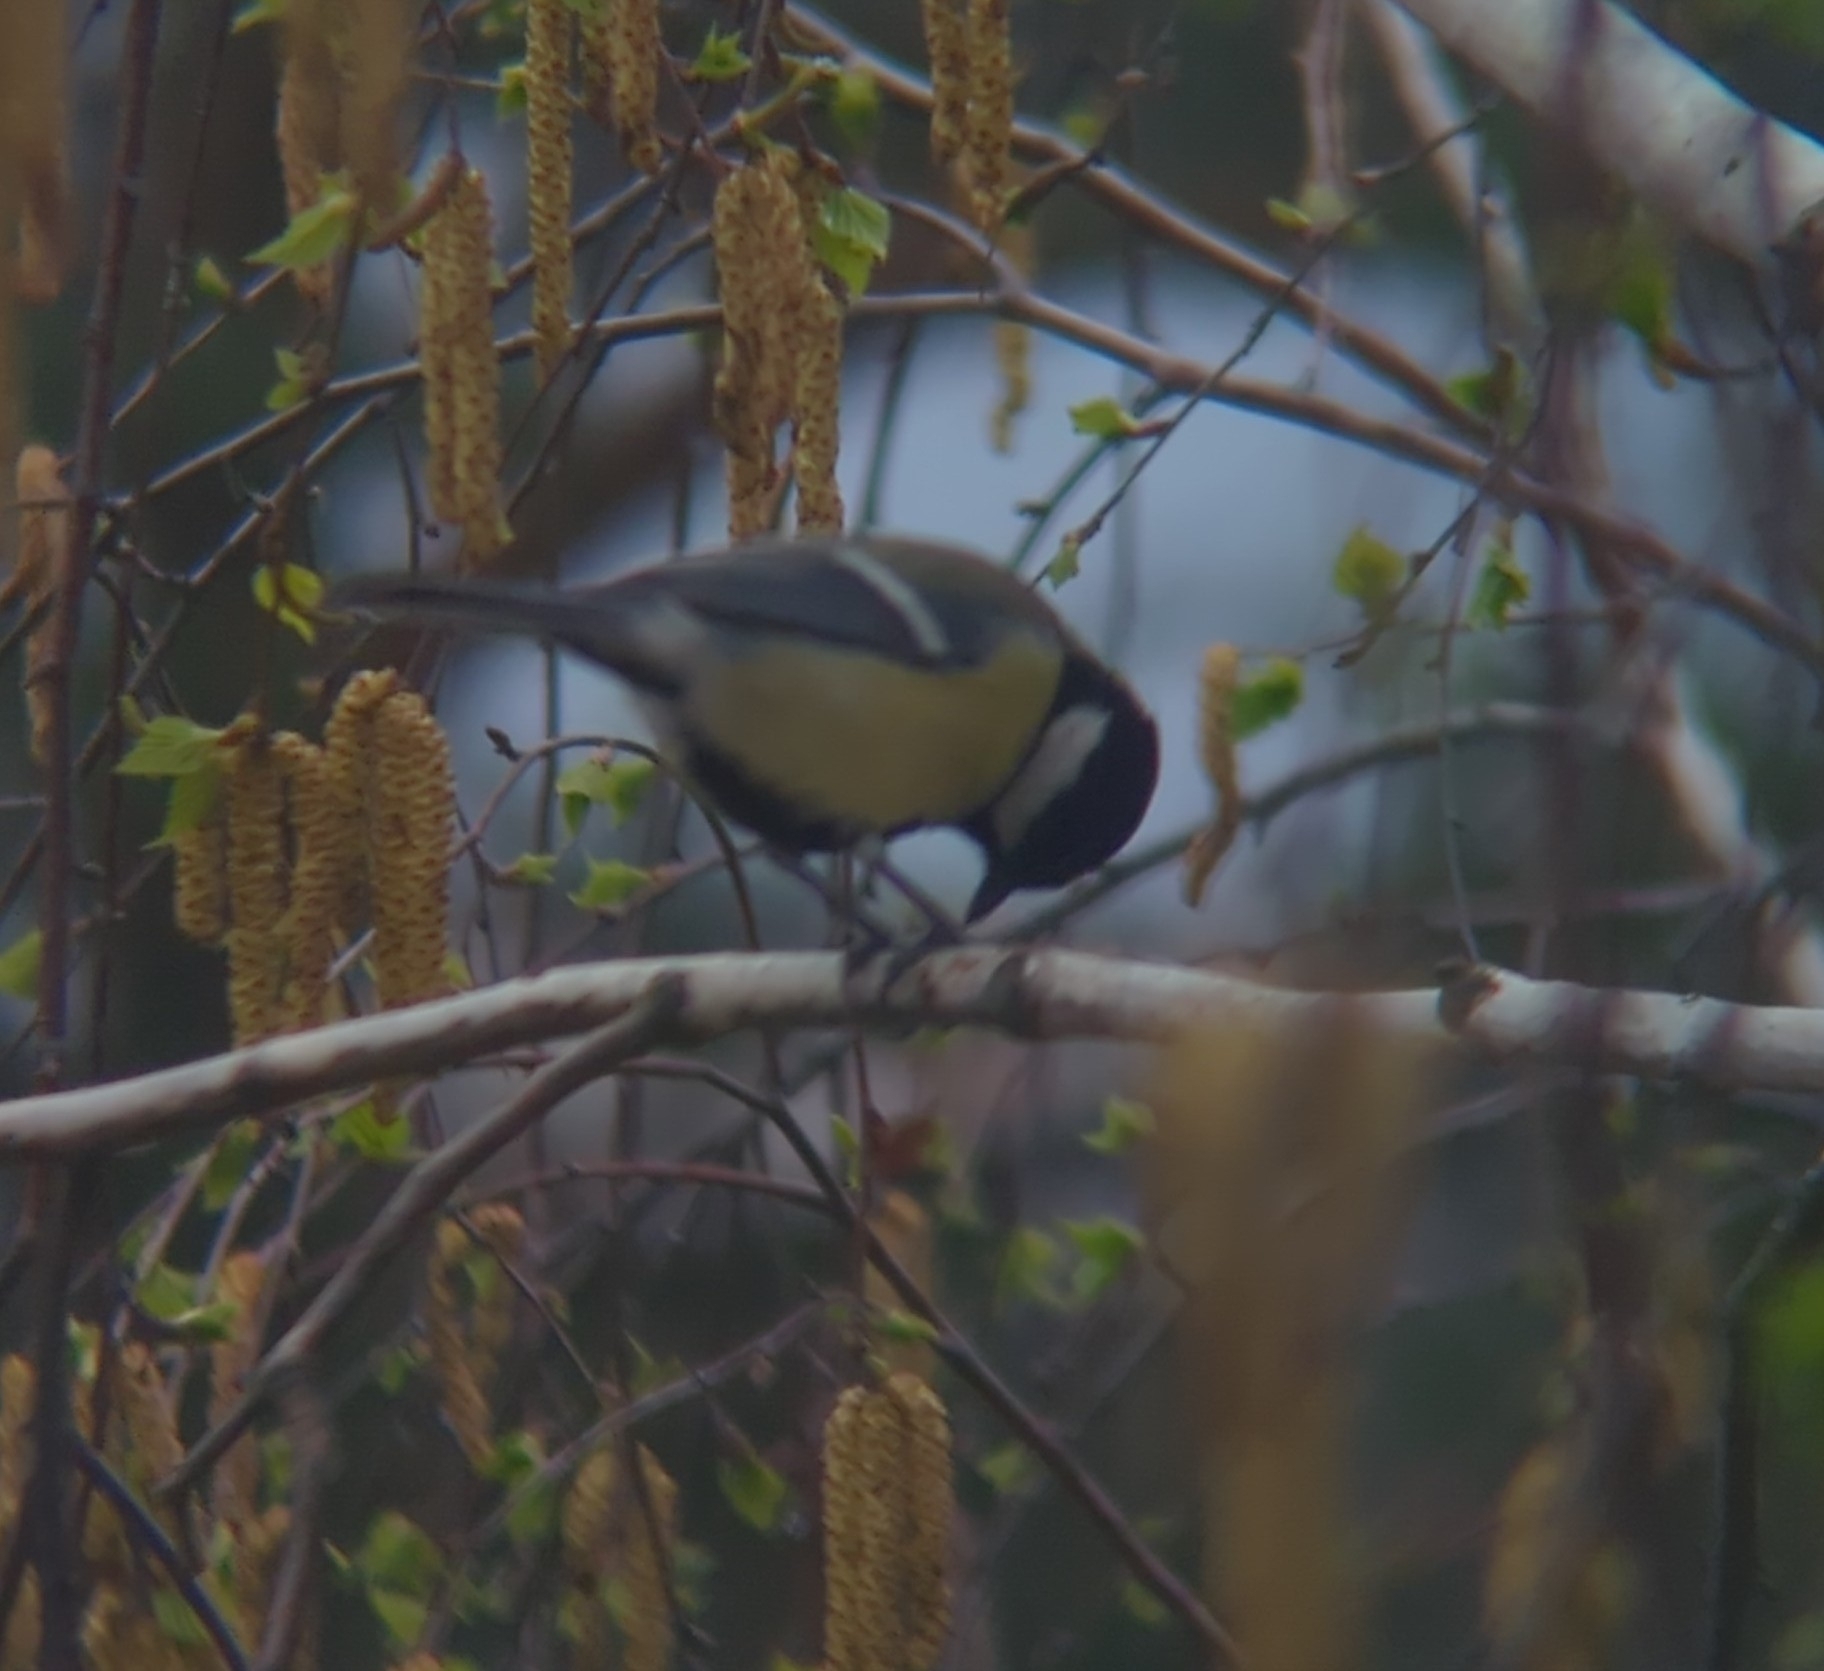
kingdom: Animalia
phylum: Chordata
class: Aves
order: Passeriformes
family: Paridae
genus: Parus
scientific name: Parus major
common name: Great tit
